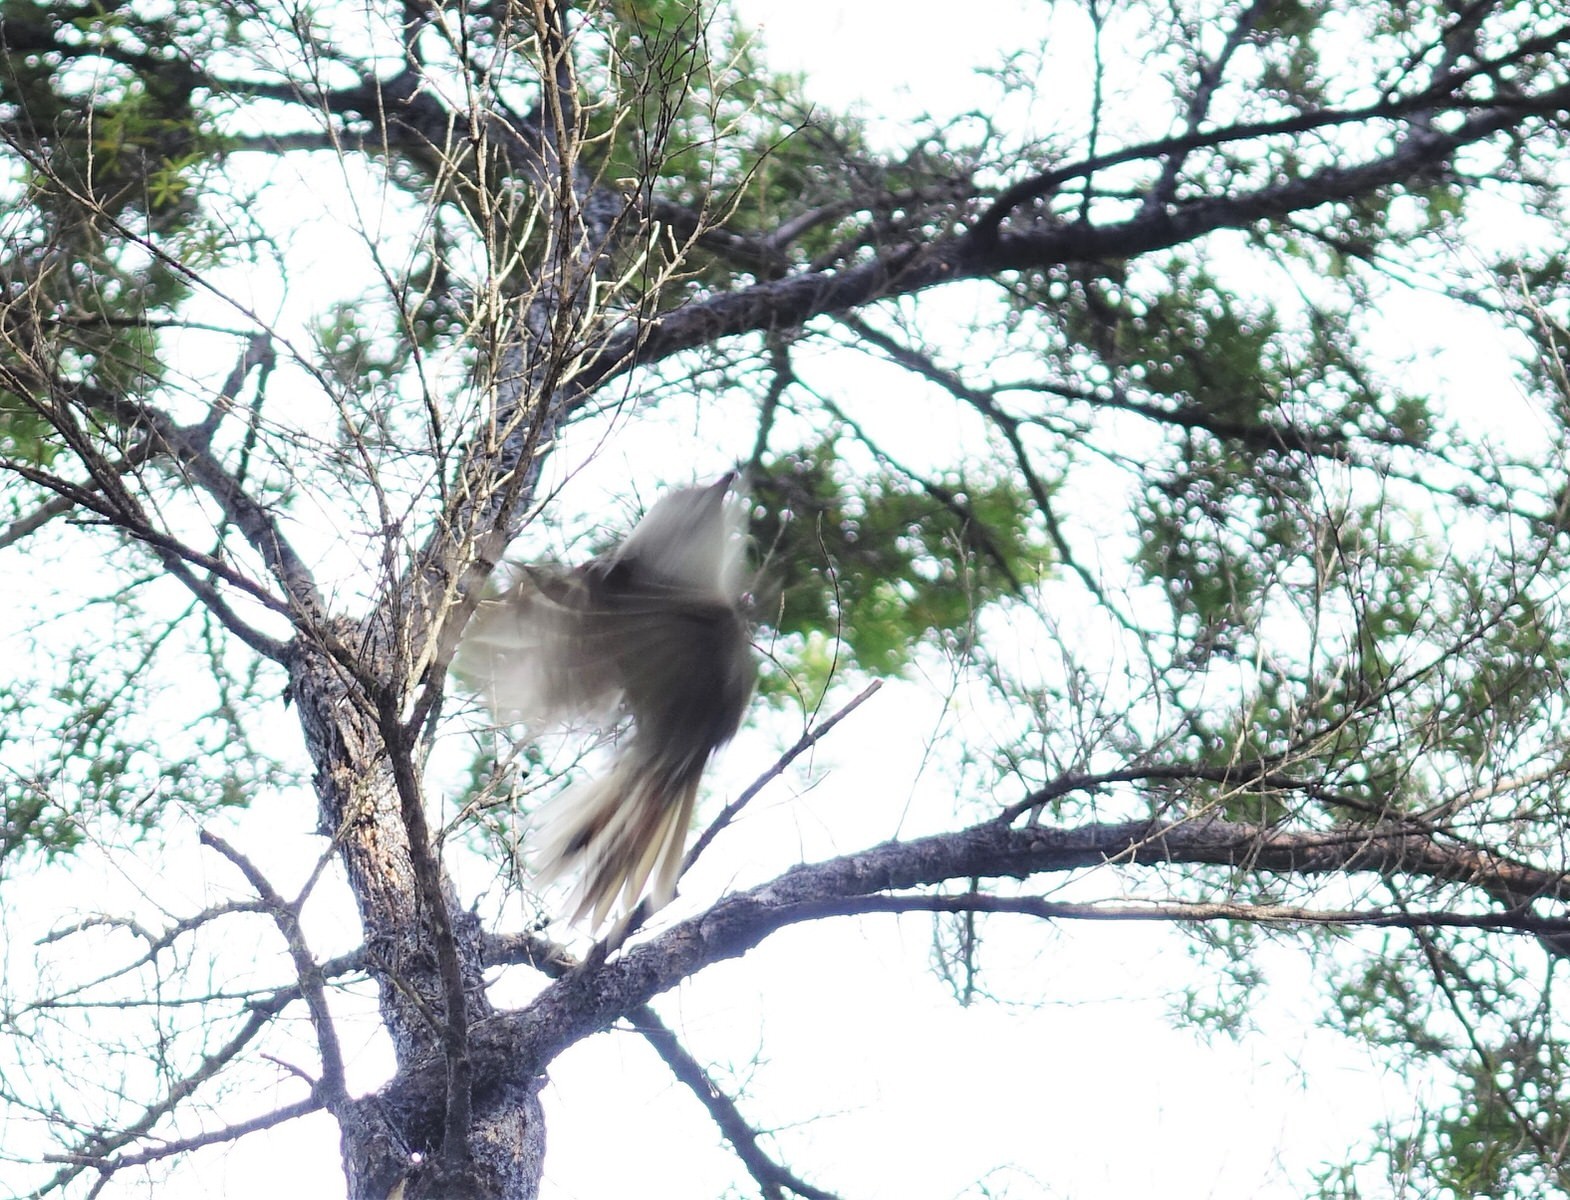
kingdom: Animalia
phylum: Chordata
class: Aves
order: Passeriformes
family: Acanthizidae
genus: Mohoua
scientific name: Mohoua albicilla
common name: Whitehead
